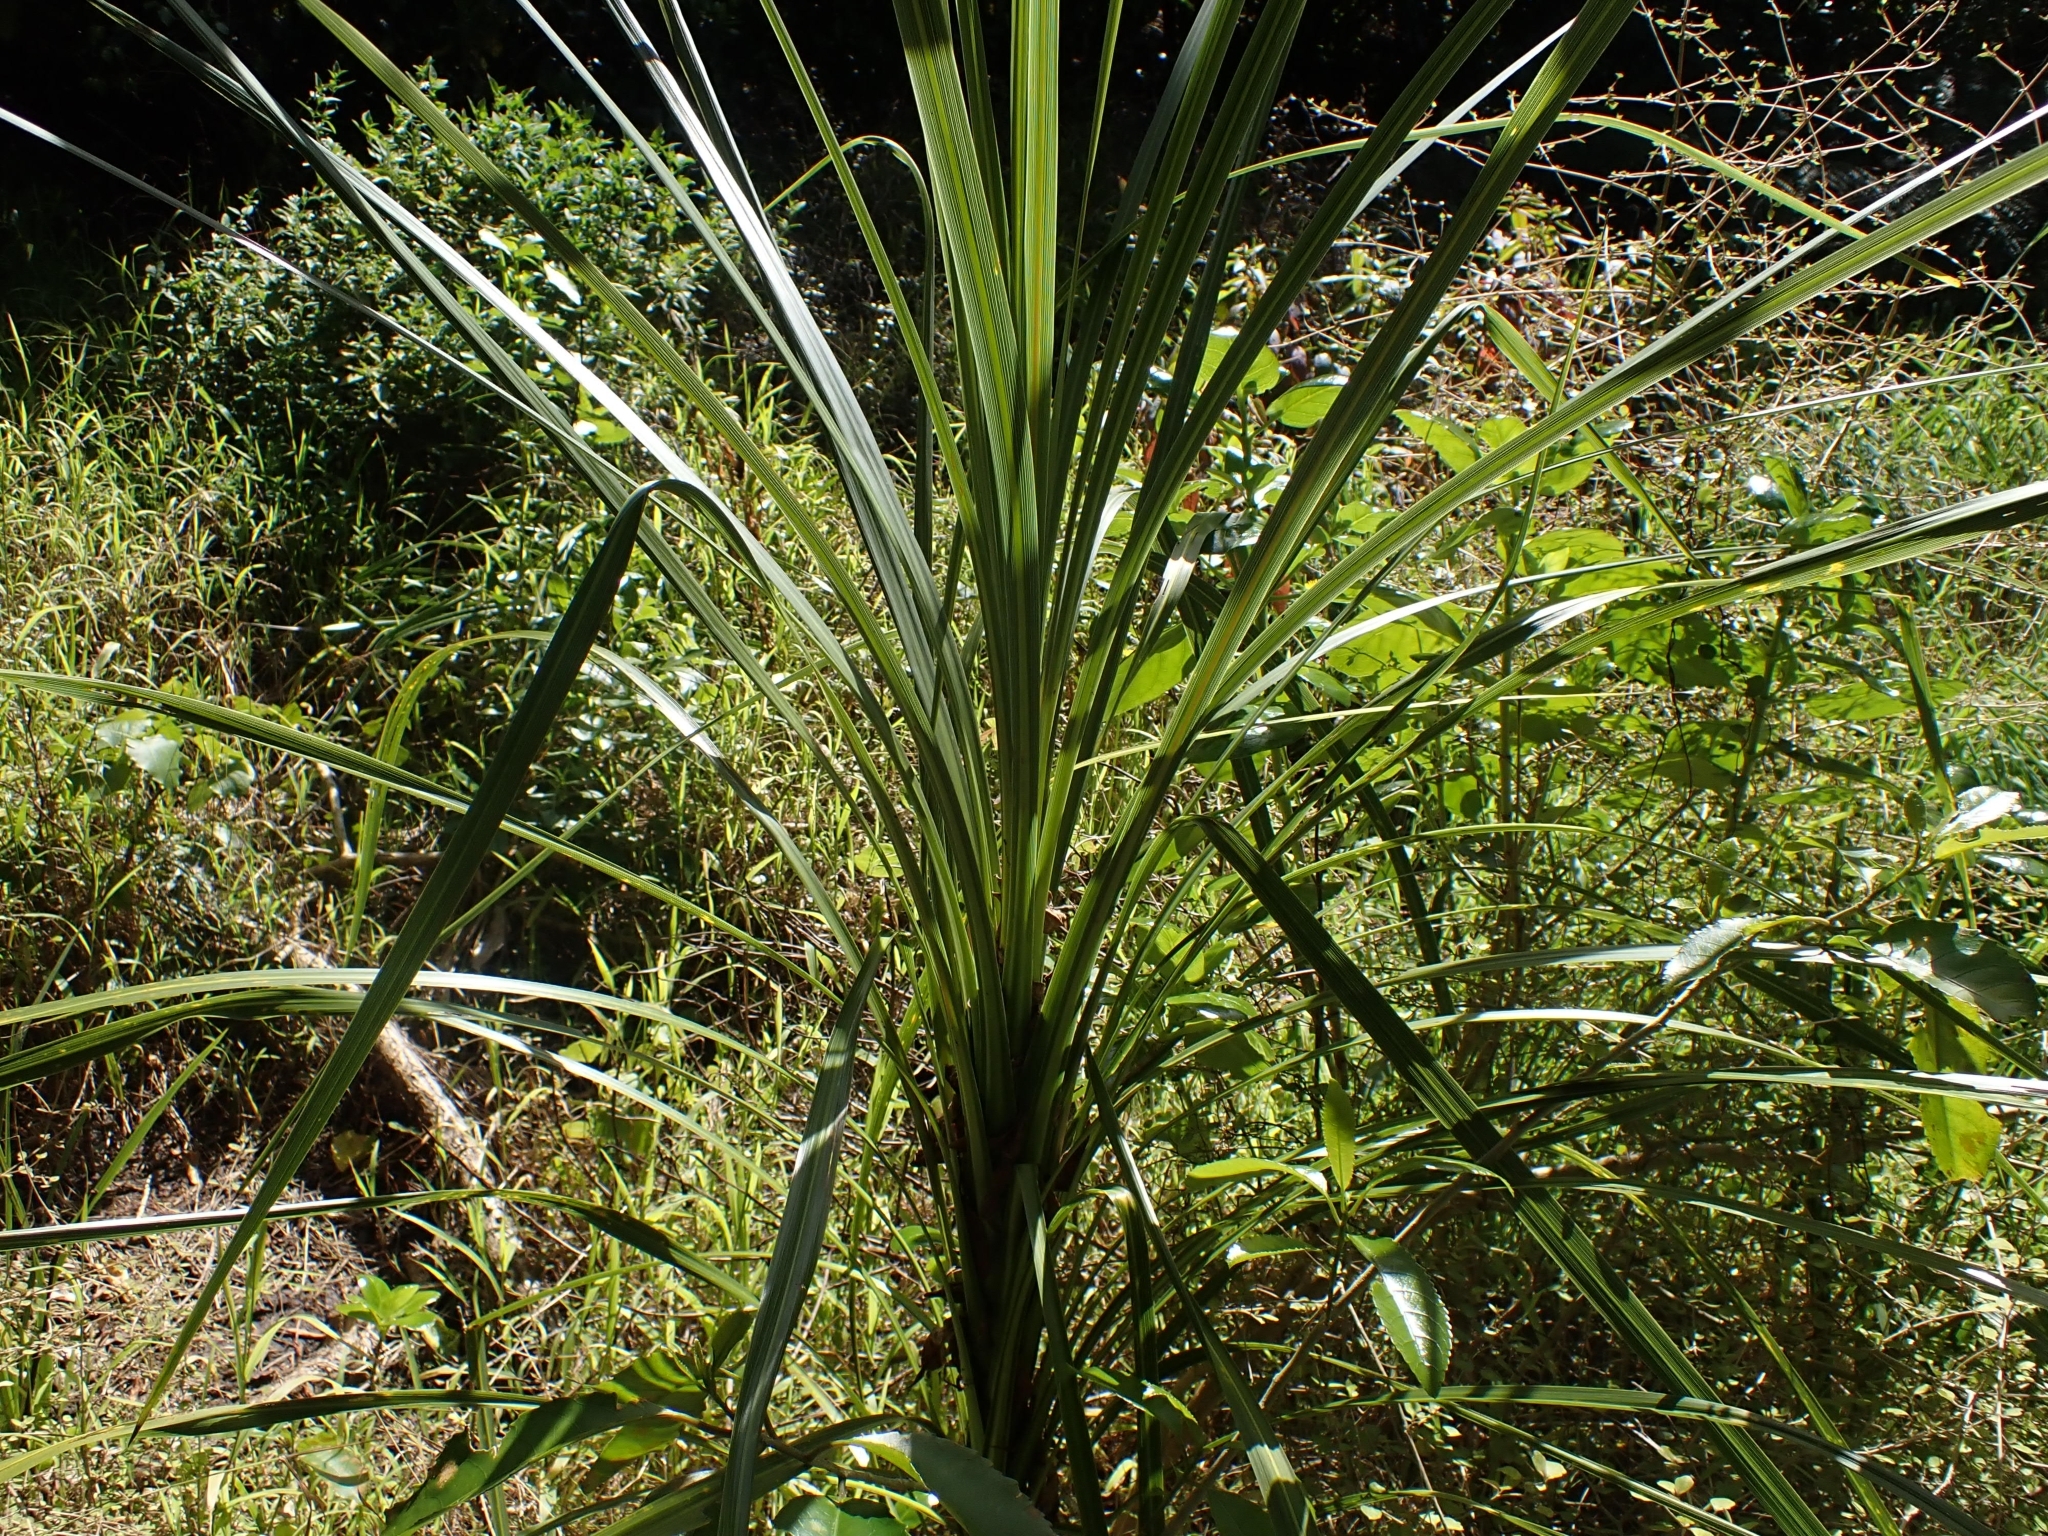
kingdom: Plantae
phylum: Tracheophyta
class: Liliopsida
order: Asparagales
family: Asparagaceae
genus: Cordyline
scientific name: Cordyline australis
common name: Cabbage-palm
